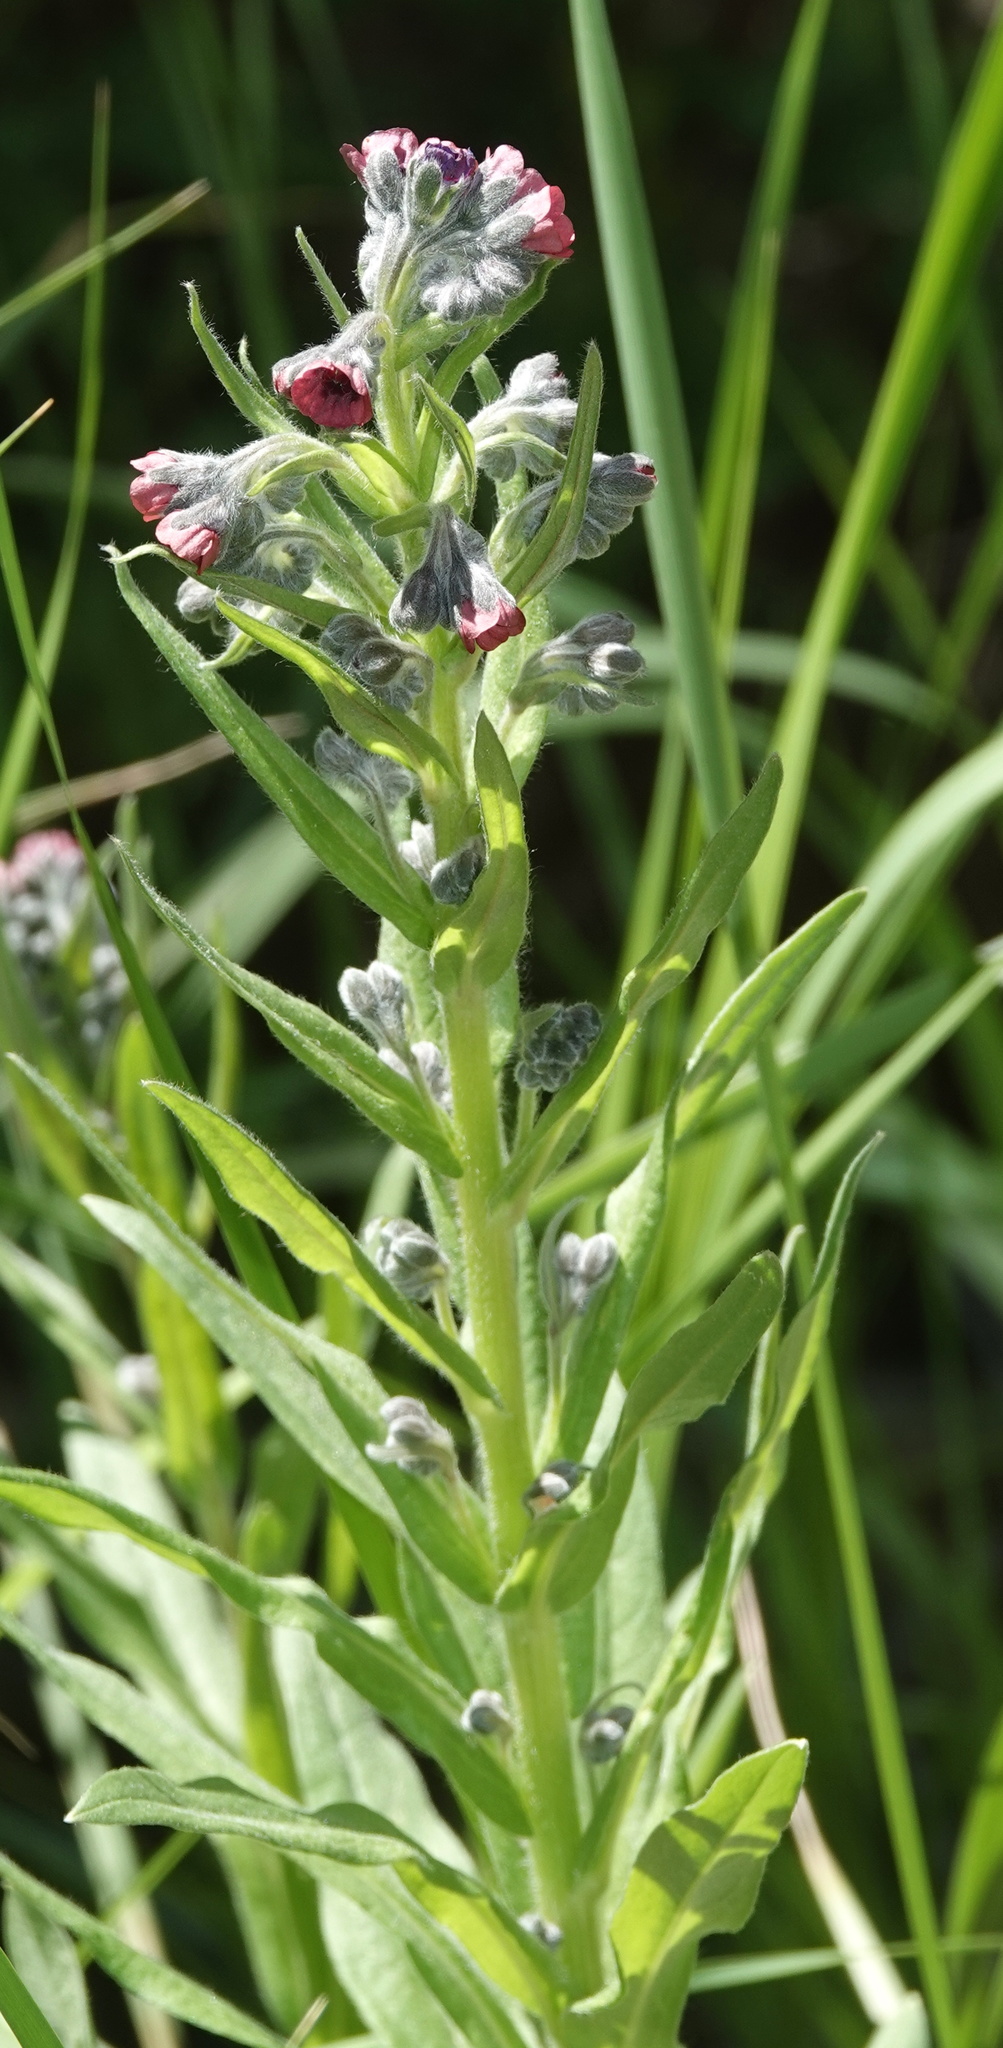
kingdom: Plantae
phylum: Tracheophyta
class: Magnoliopsida
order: Boraginales
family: Boraginaceae
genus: Cynoglossum
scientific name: Cynoglossum officinale
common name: Hound's-tongue
